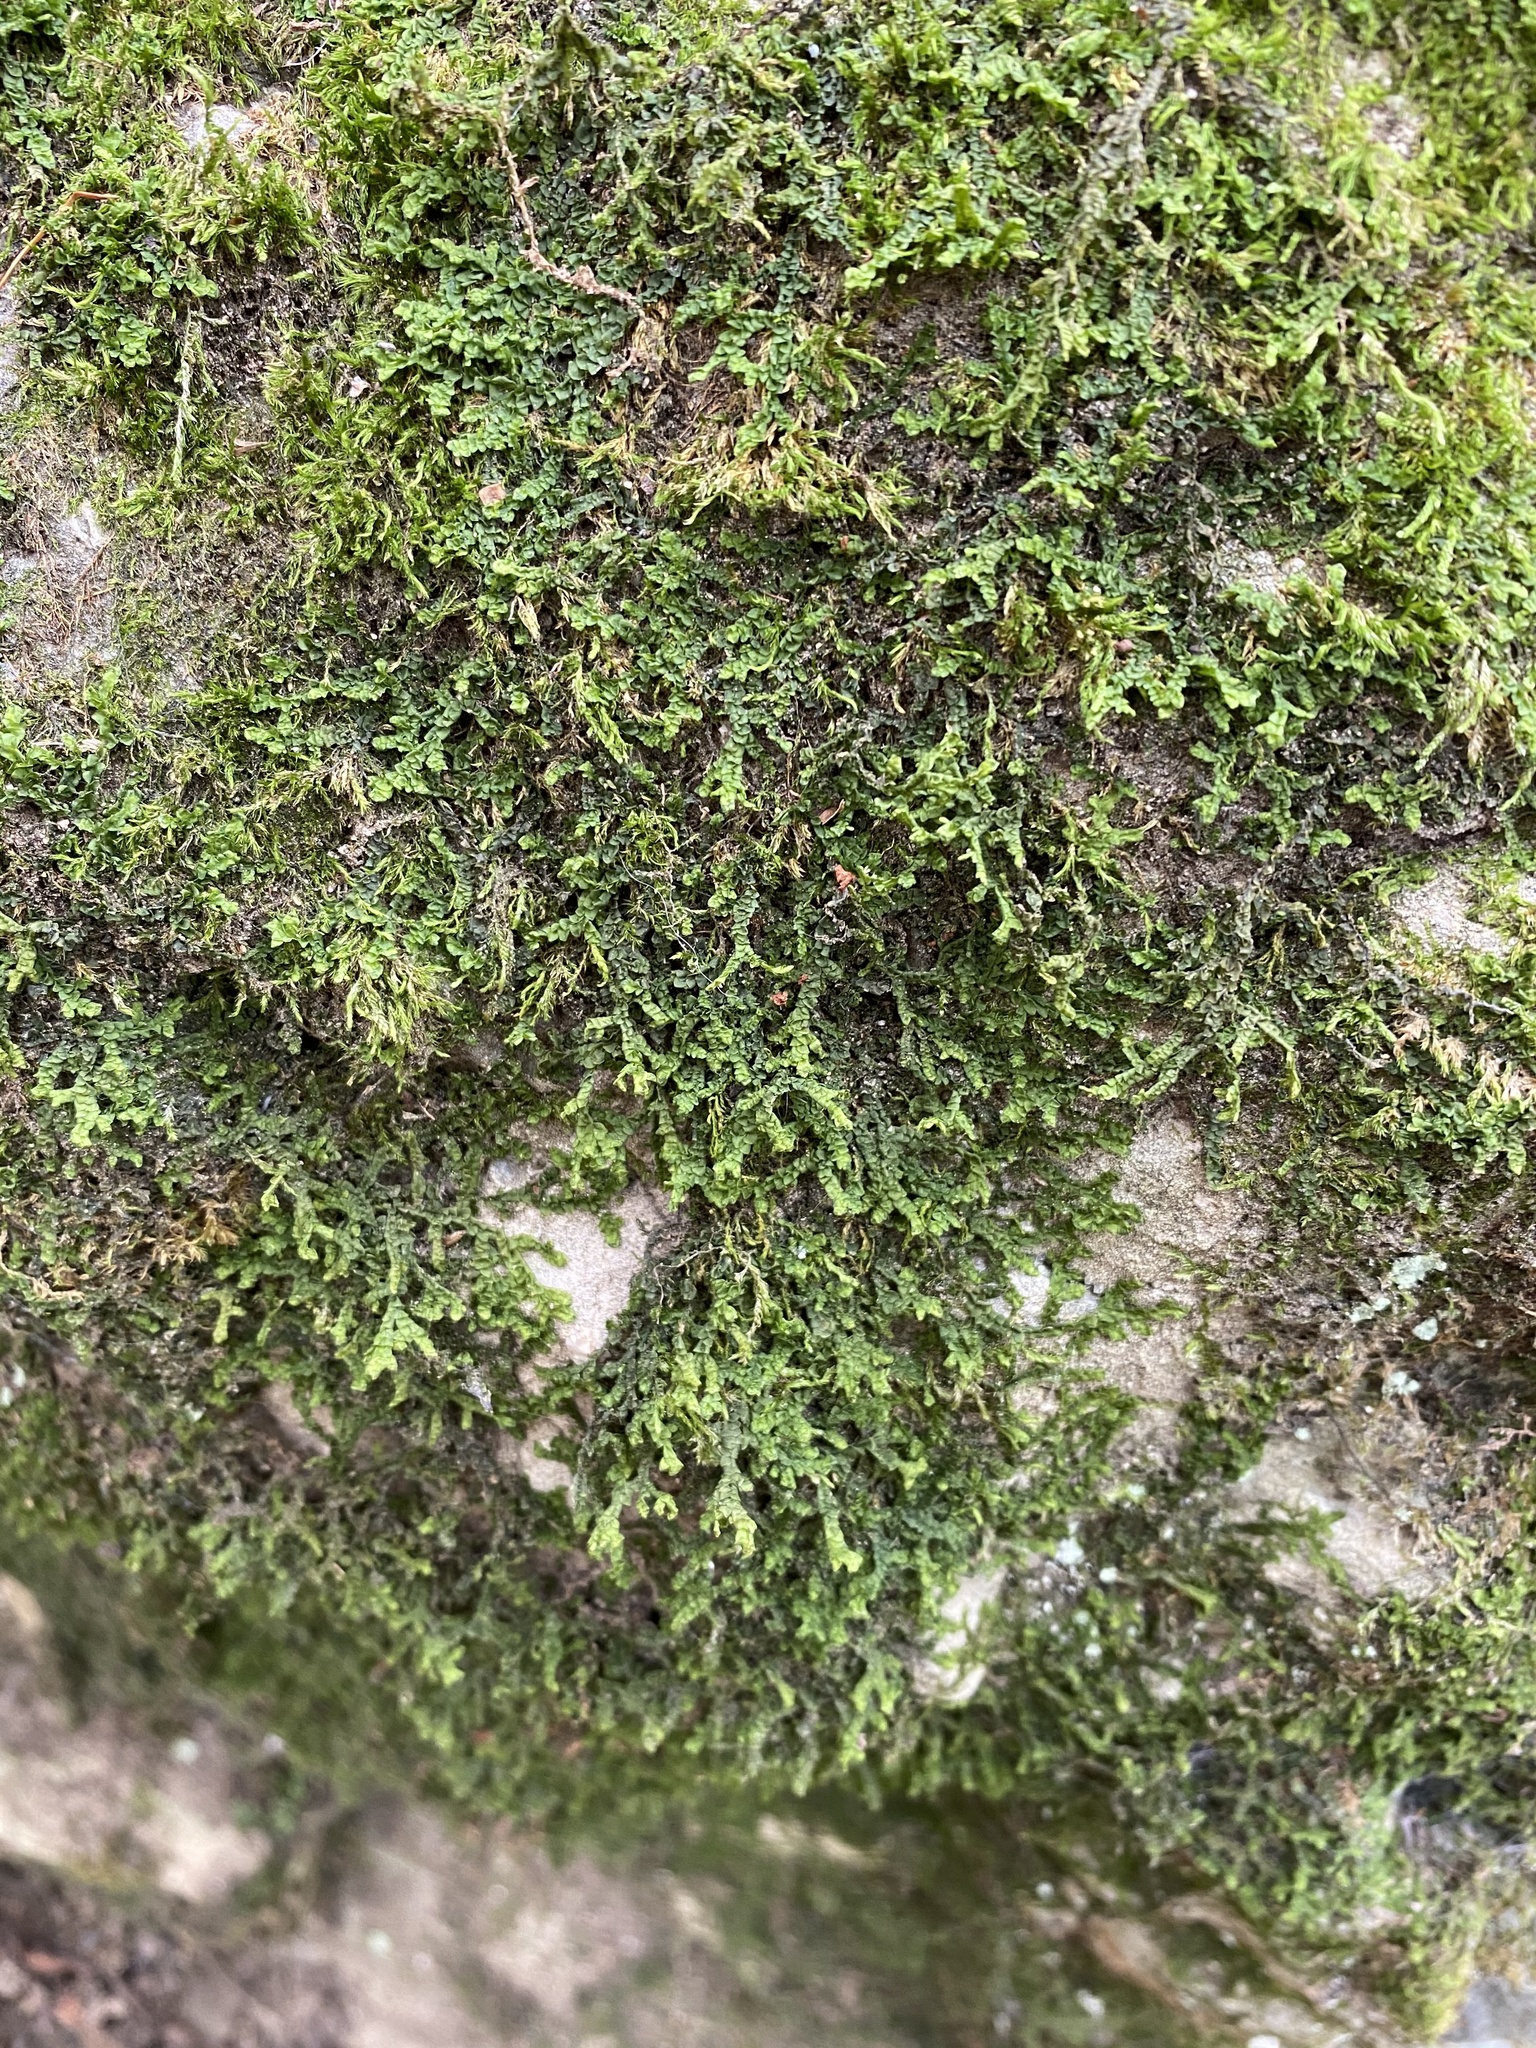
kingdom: Plantae
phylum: Marchantiophyta
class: Jungermanniopsida
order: Porellales
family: Porellaceae
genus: Porella
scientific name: Porella platyphylla
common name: Wall scalewort
